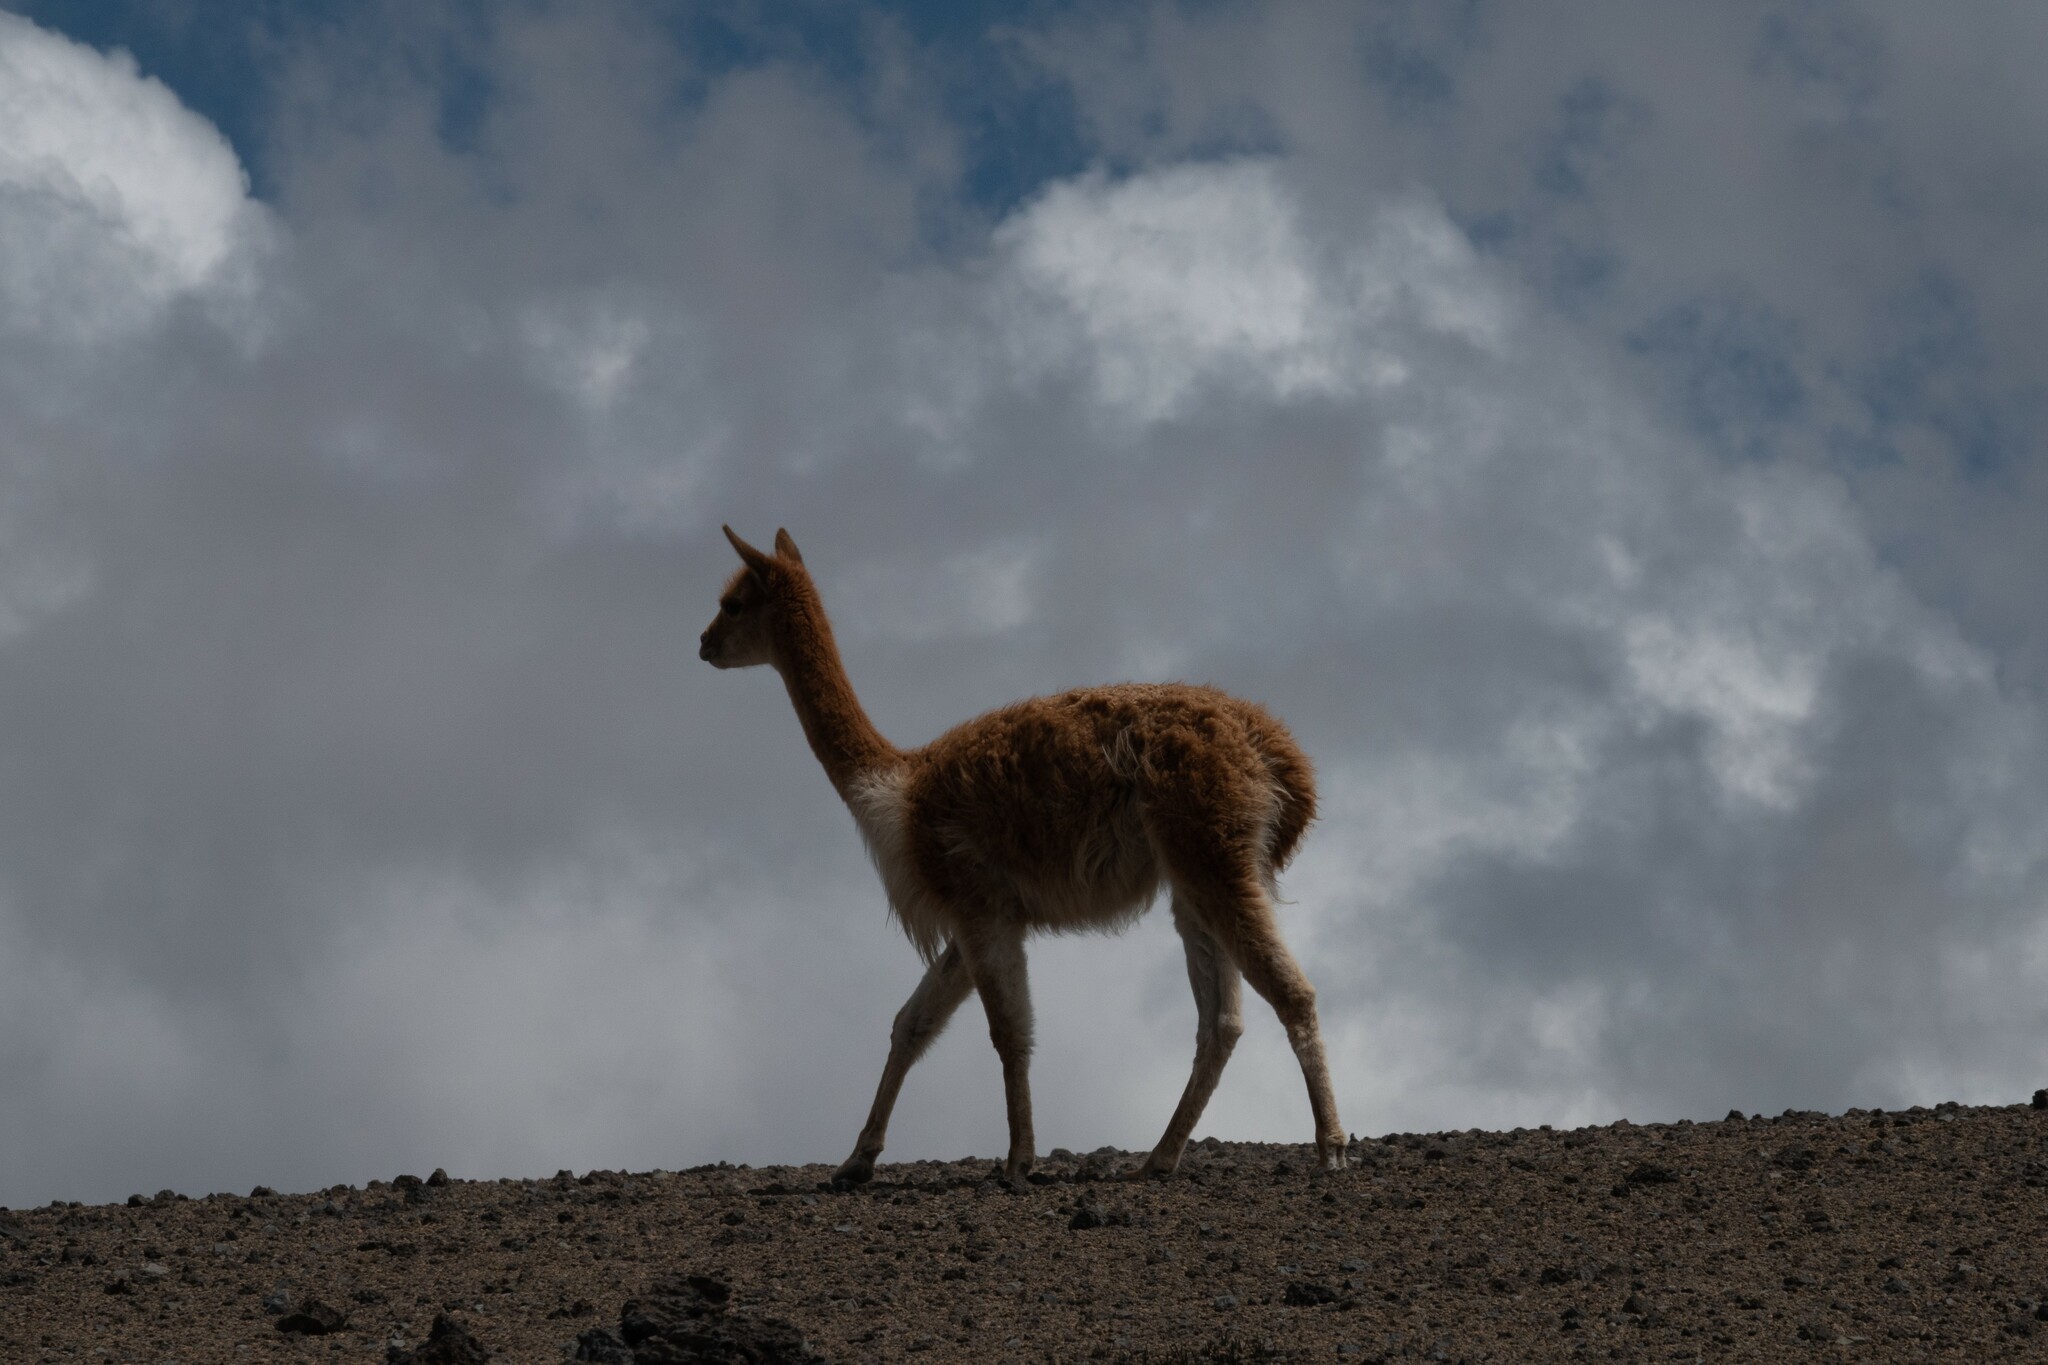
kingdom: Animalia
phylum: Chordata
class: Mammalia
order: Artiodactyla
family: Camelidae
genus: Vicugna
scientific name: Vicugna vicugna
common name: Vicugna
